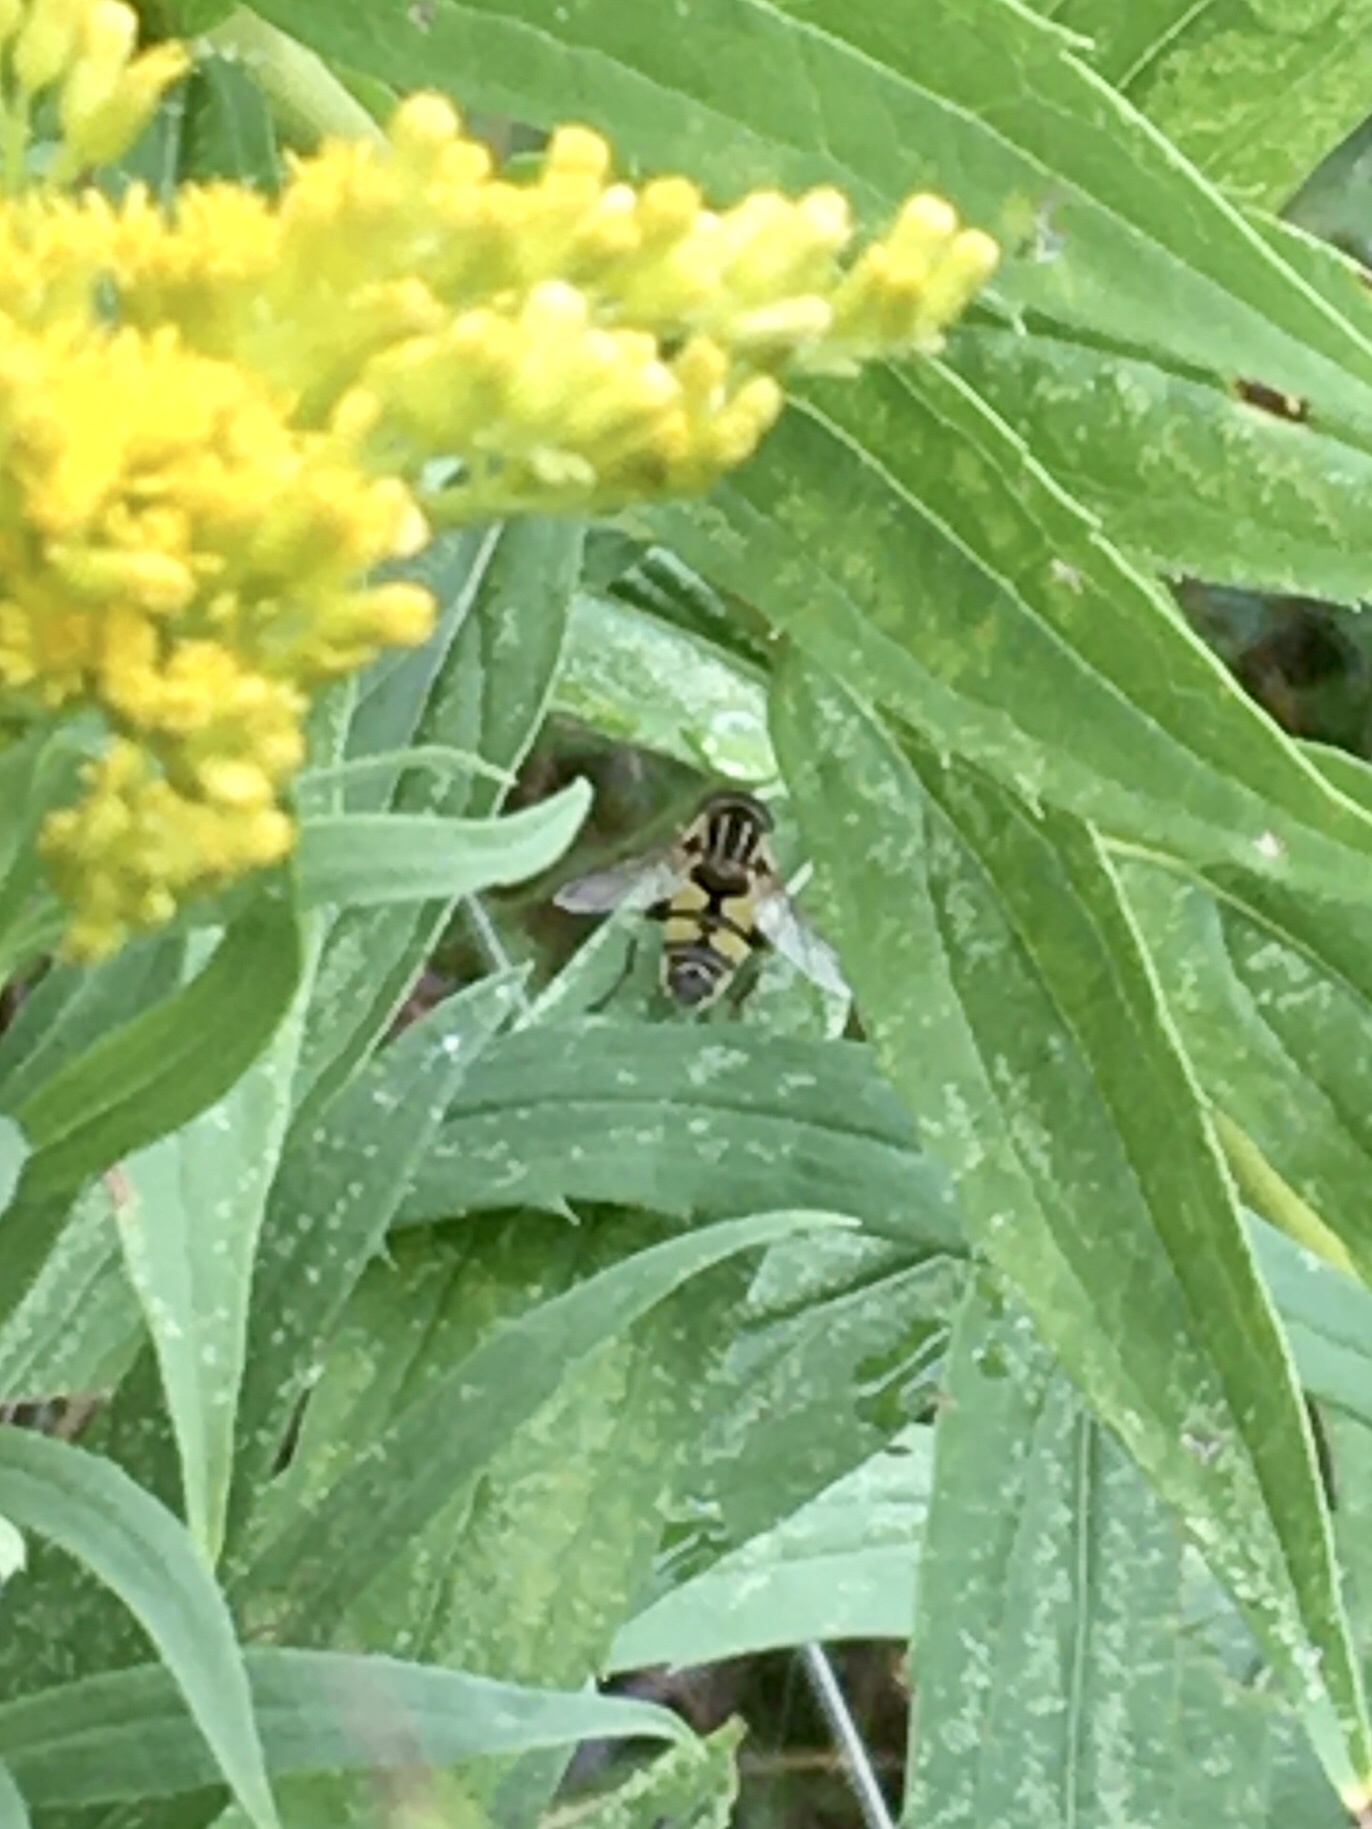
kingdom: Animalia
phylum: Arthropoda
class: Insecta
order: Diptera
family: Syrphidae
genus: Helophilus
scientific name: Helophilus fasciatus
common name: Narrow-headed marsh fly
